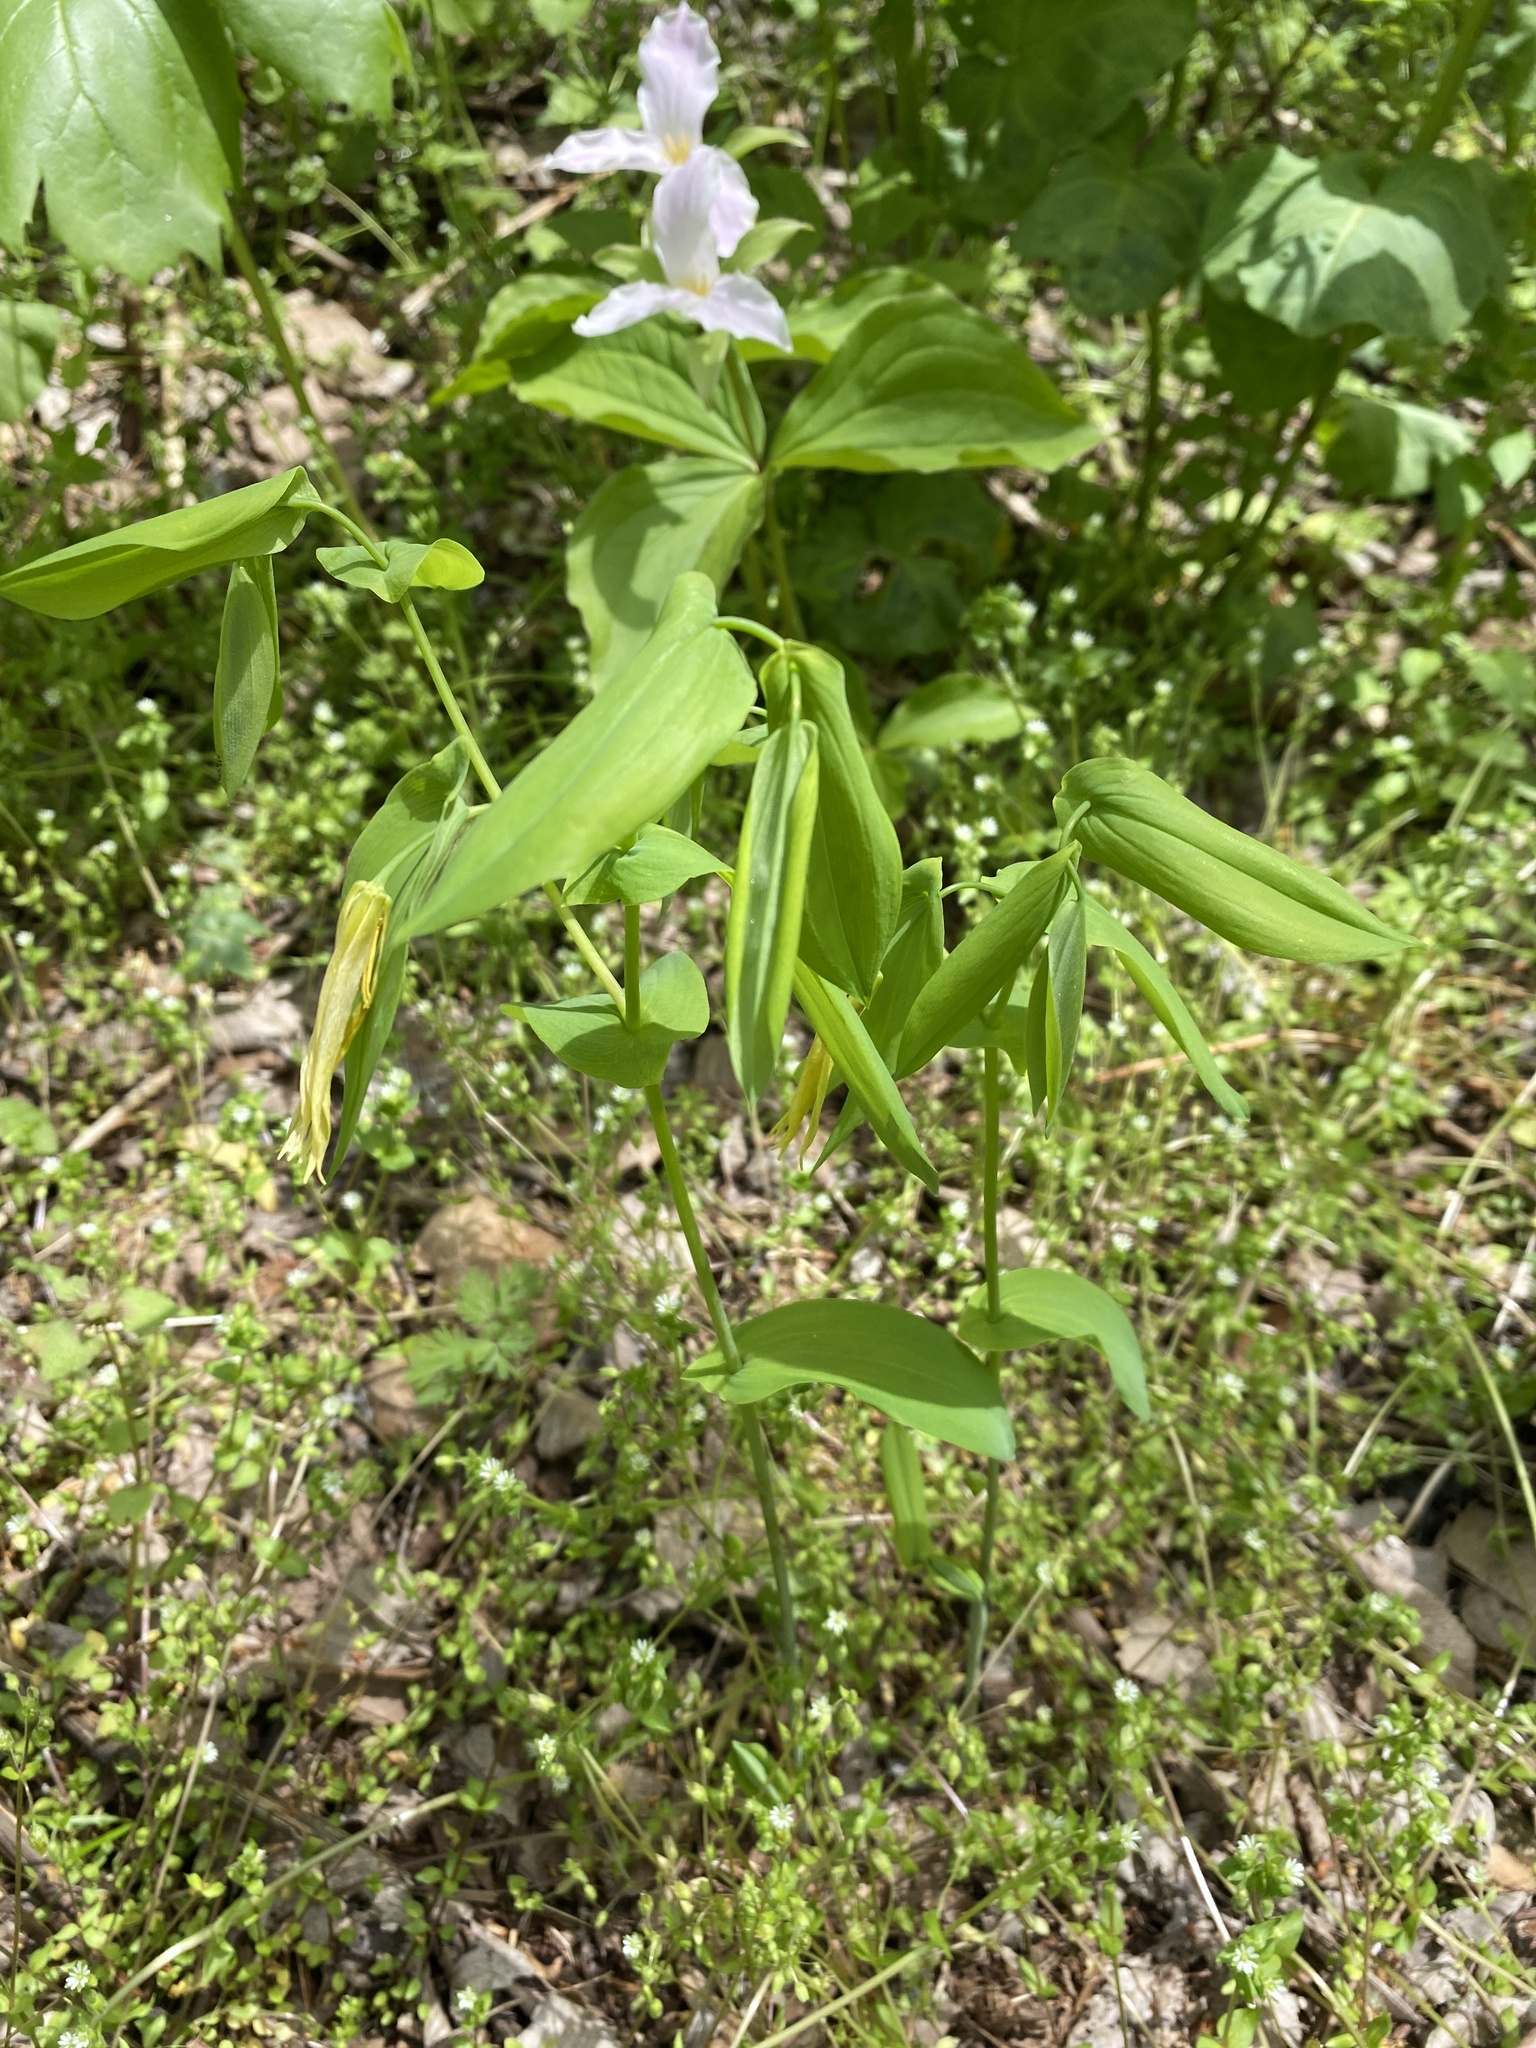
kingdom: Plantae
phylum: Tracheophyta
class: Liliopsida
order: Liliales
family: Colchicaceae
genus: Uvularia
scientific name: Uvularia grandiflora
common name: Bellwort
